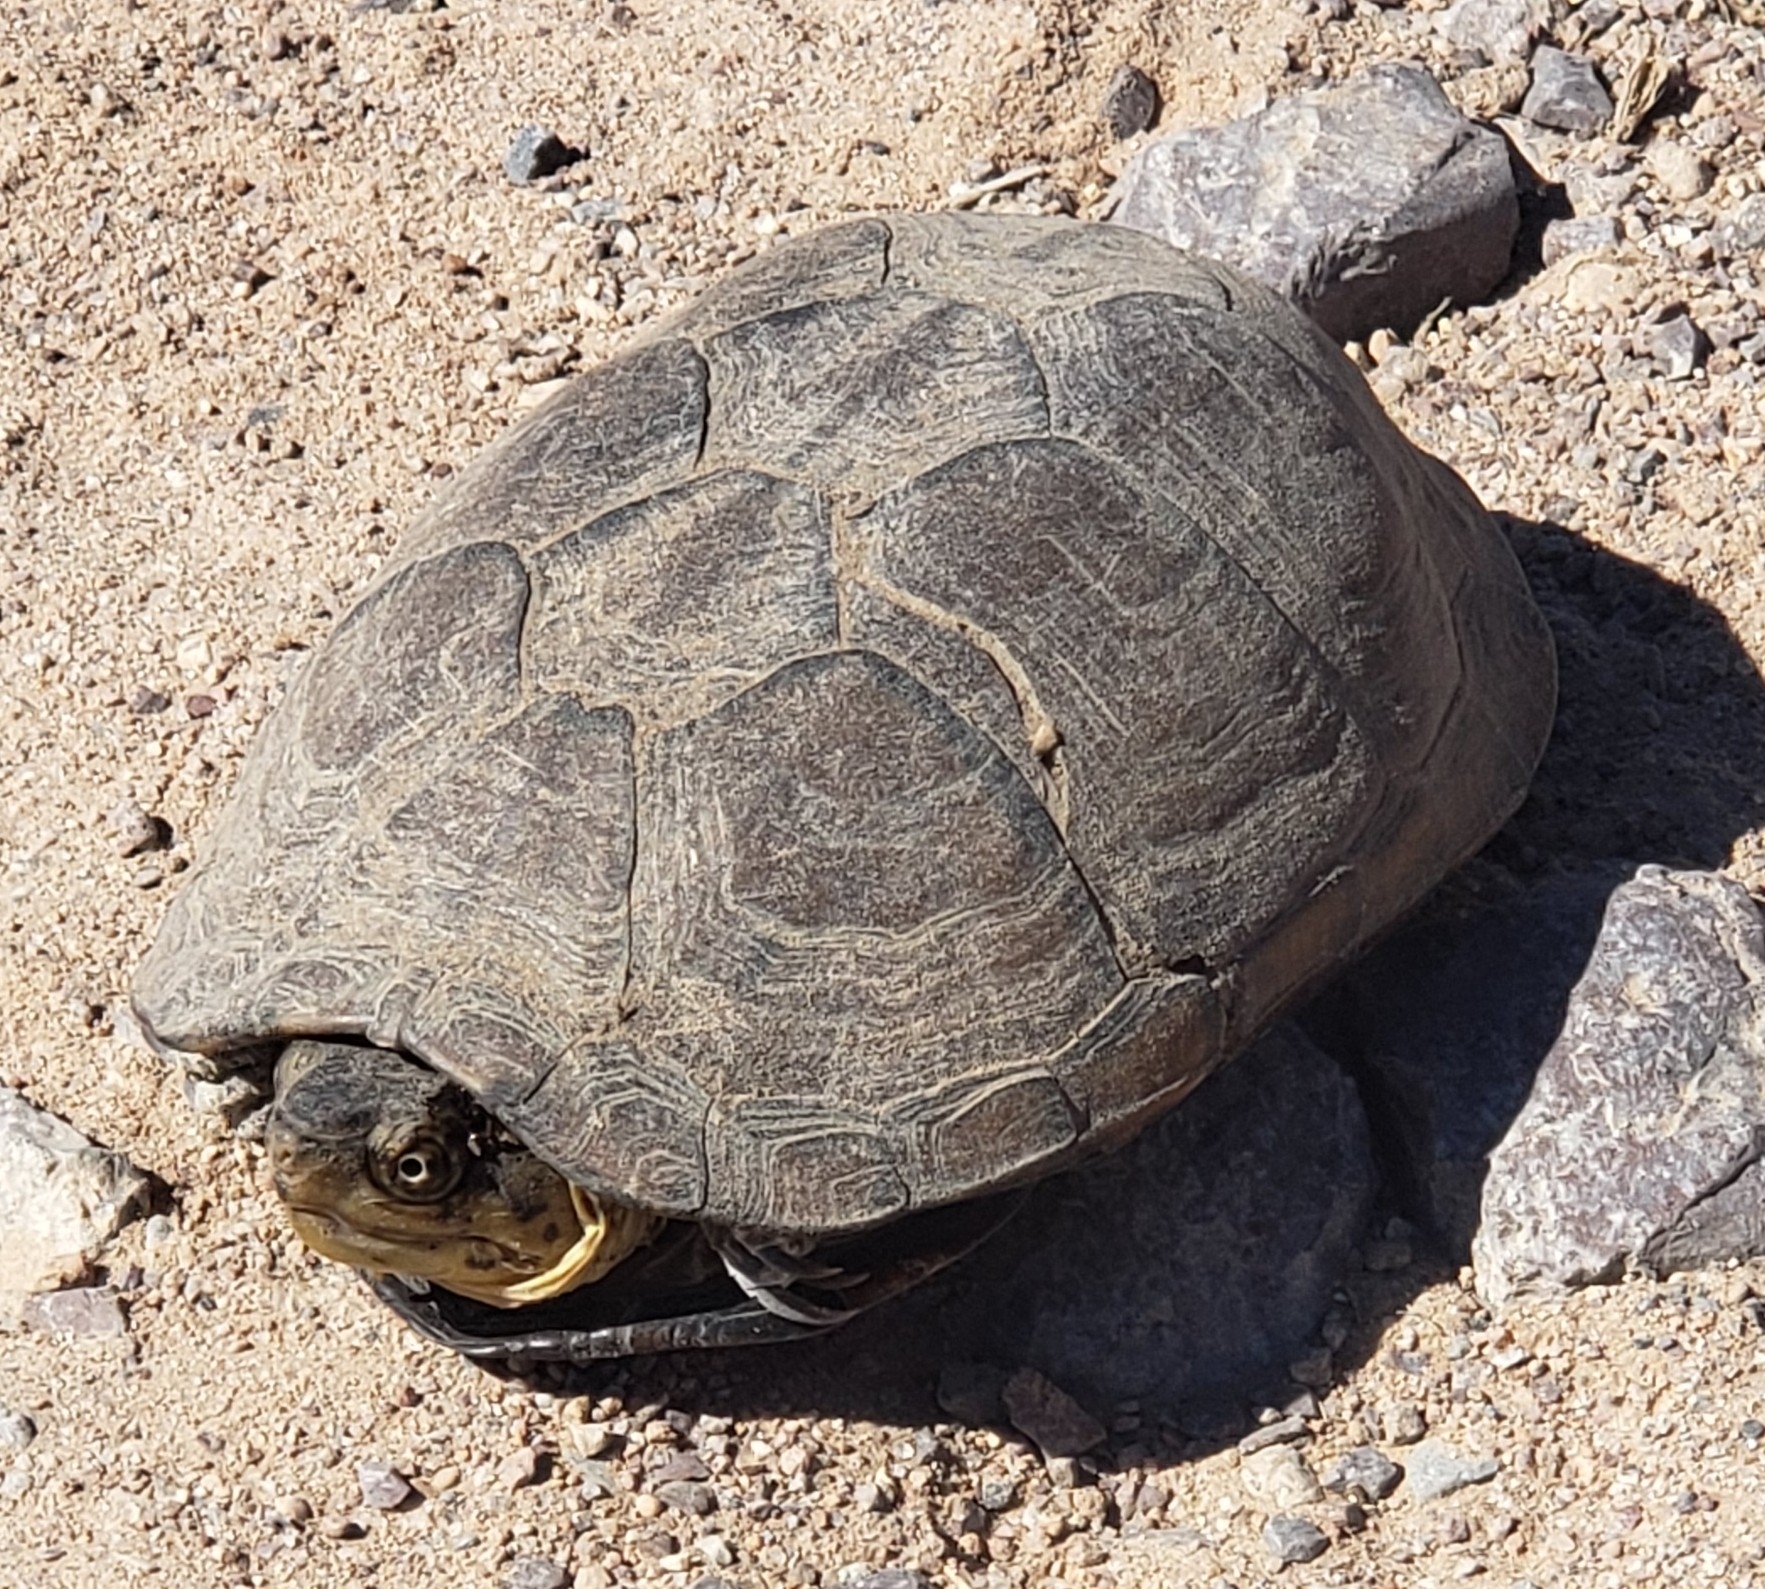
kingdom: Animalia
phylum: Chordata
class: Testudines
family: Kinosternidae
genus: Kinosternon
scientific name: Kinosternon integrum
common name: Mexican mud turtle
